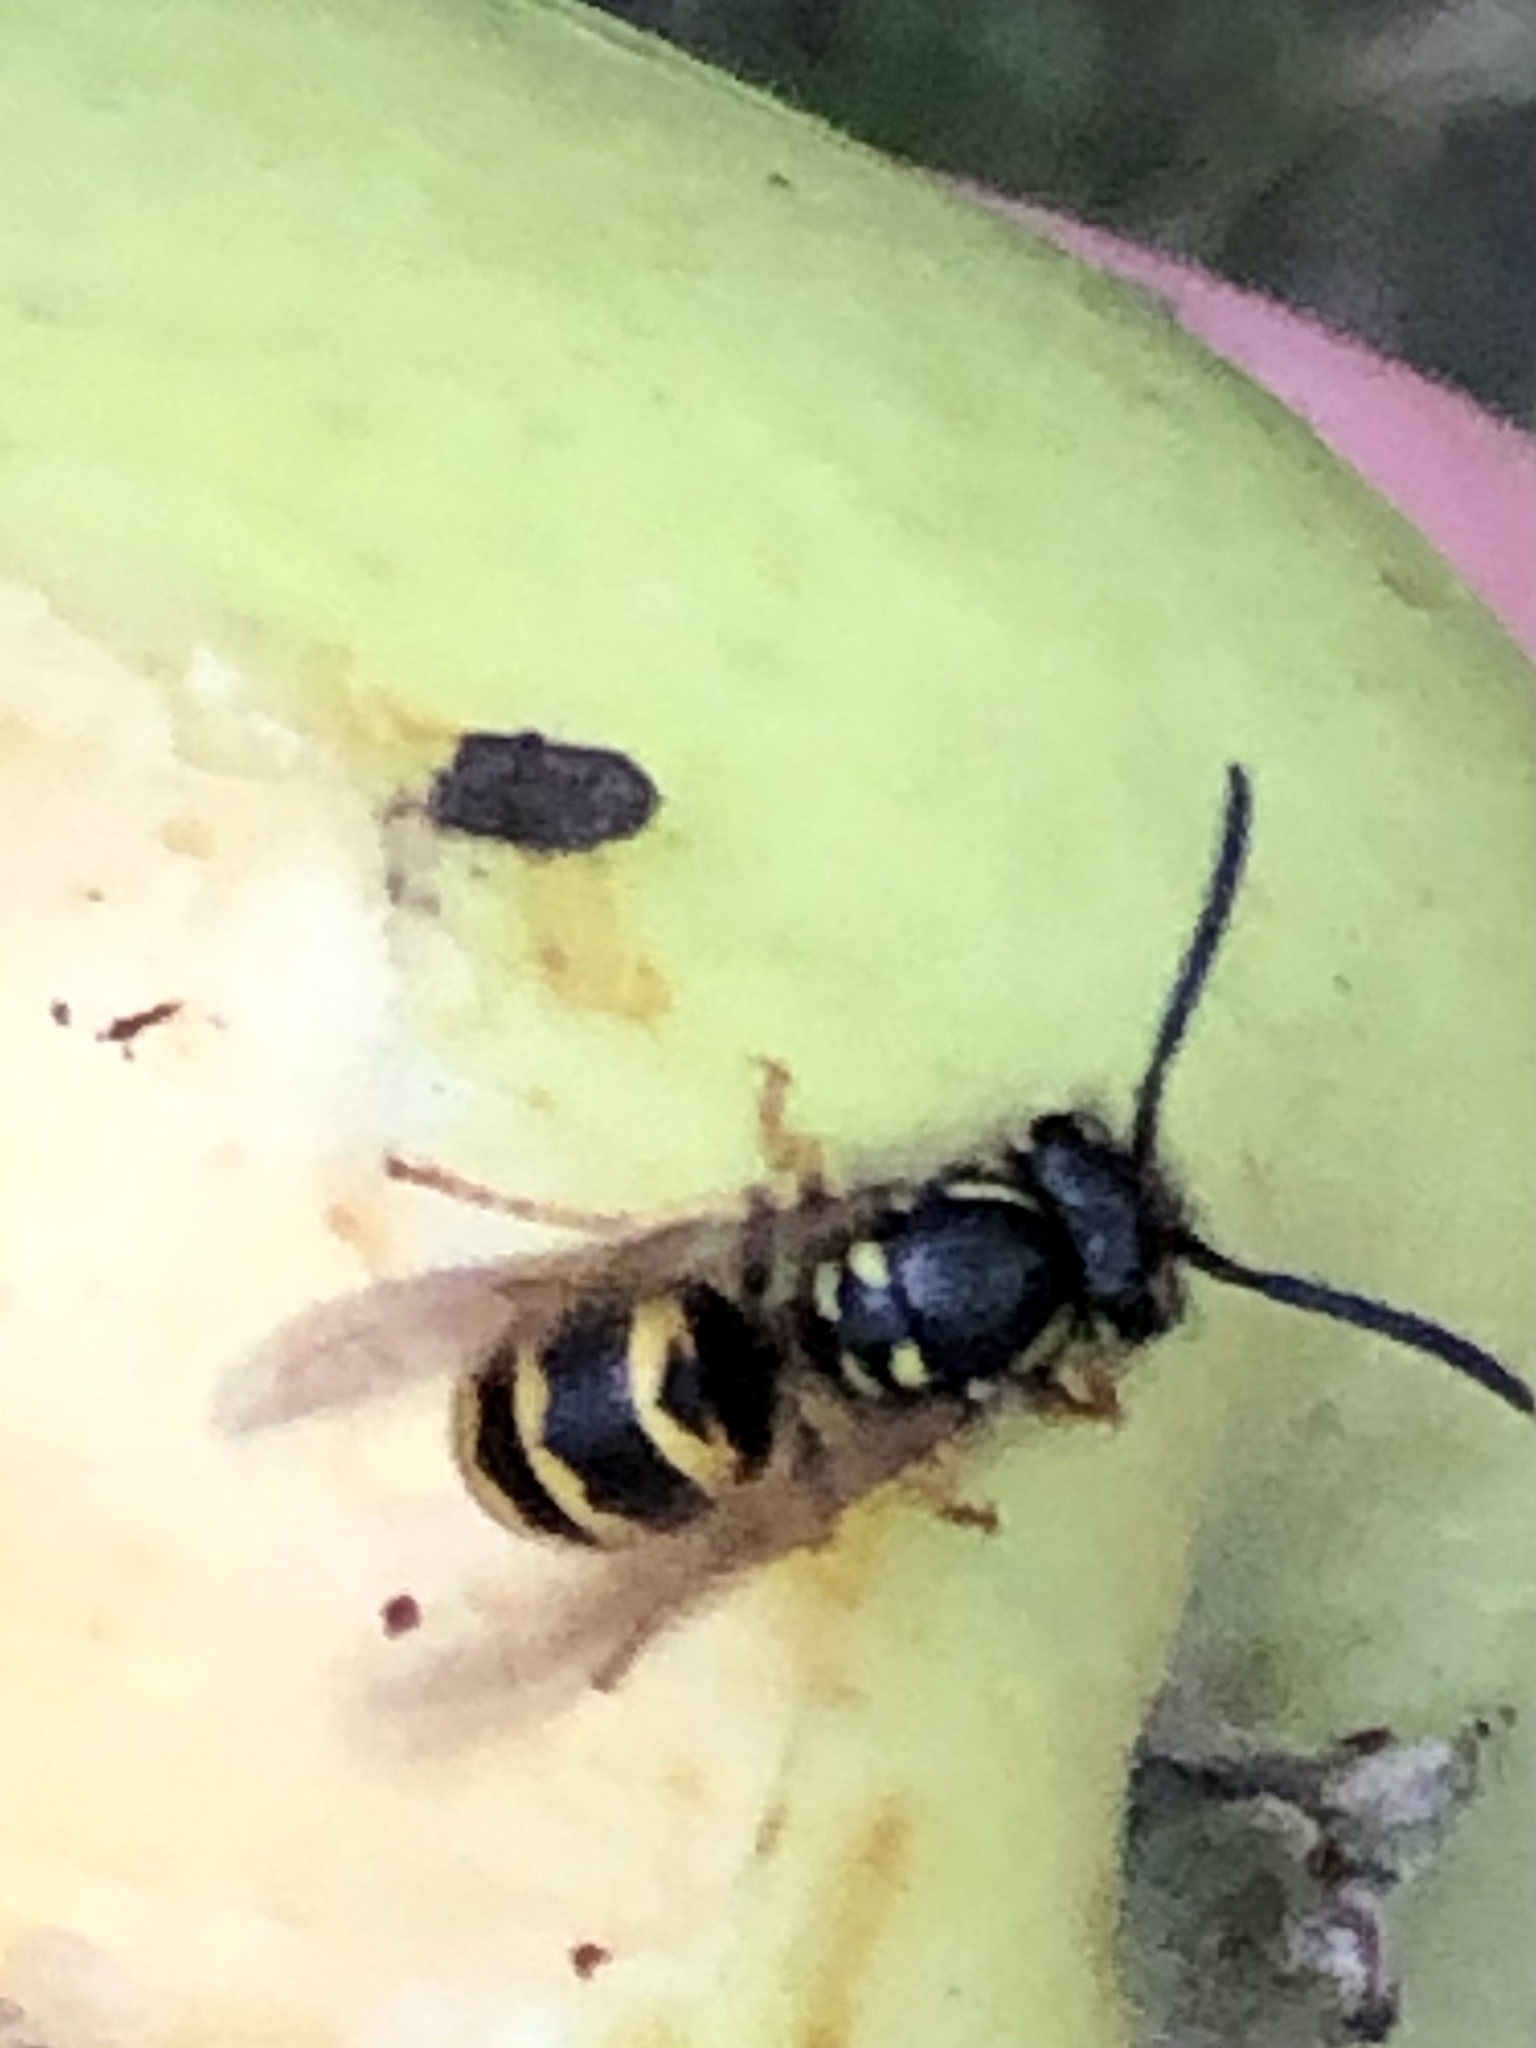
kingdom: Animalia
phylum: Arthropoda
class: Insecta
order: Hymenoptera
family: Vespidae
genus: Vespula
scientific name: Vespula alascensis
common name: Alaska yellowjacket
